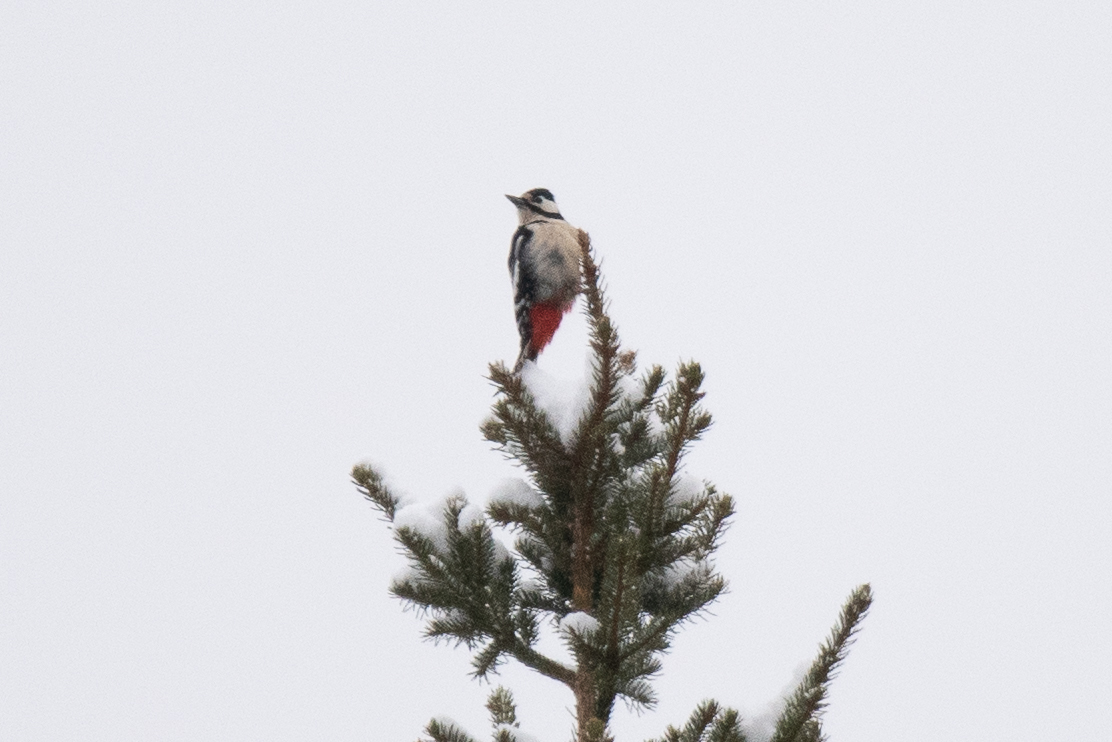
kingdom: Animalia
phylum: Chordata
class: Aves
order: Piciformes
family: Picidae
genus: Dendrocopos
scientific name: Dendrocopos major
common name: Great spotted woodpecker
